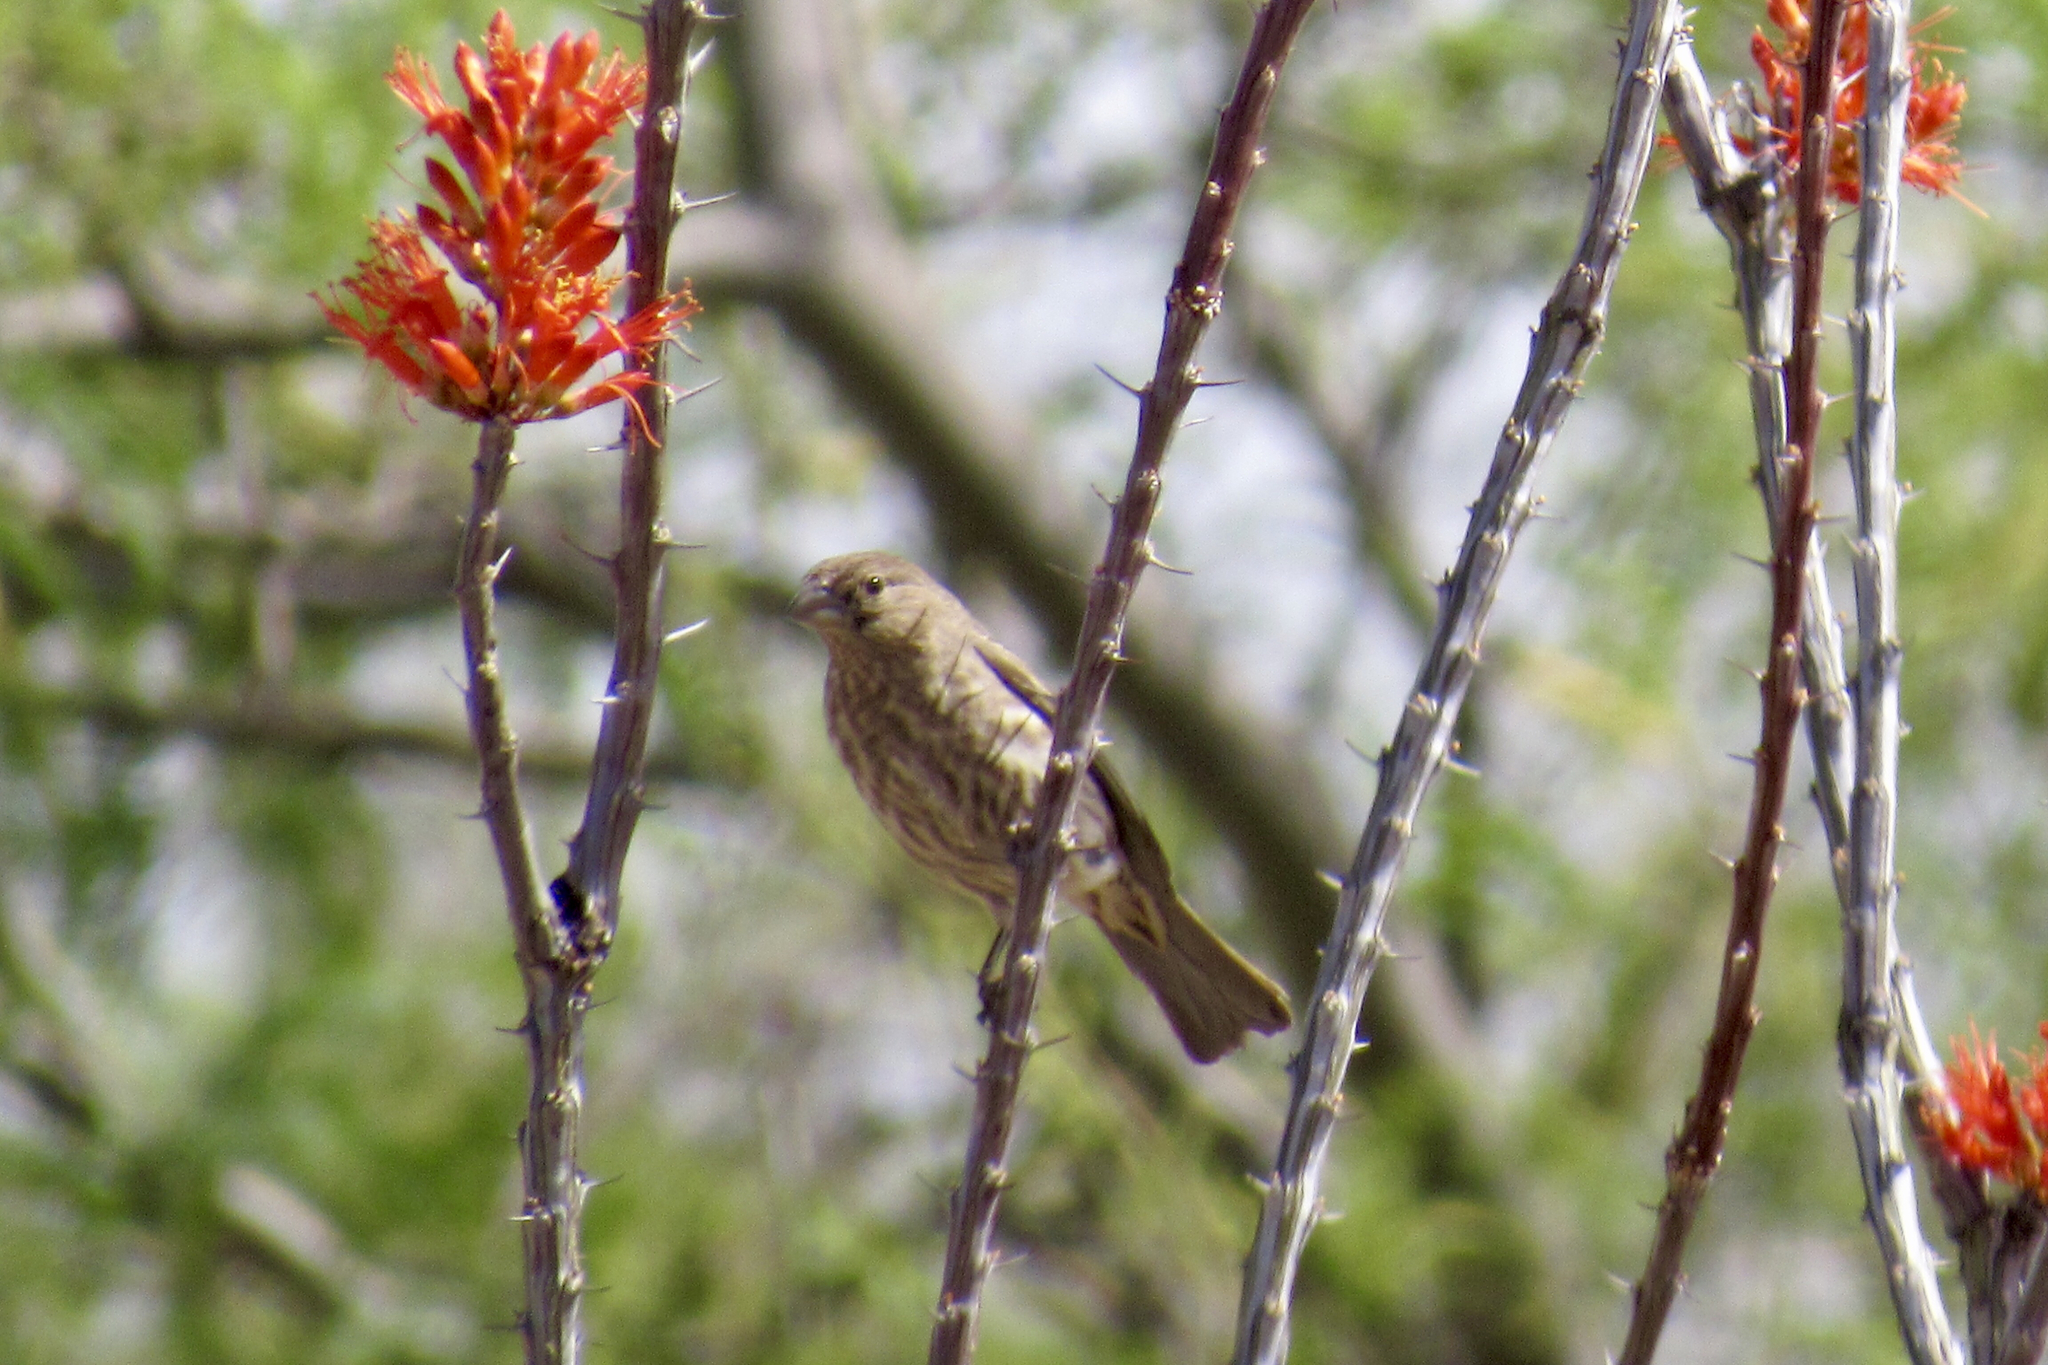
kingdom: Animalia
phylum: Chordata
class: Aves
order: Passeriformes
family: Fringillidae
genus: Haemorhous
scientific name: Haemorhous mexicanus
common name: House finch
